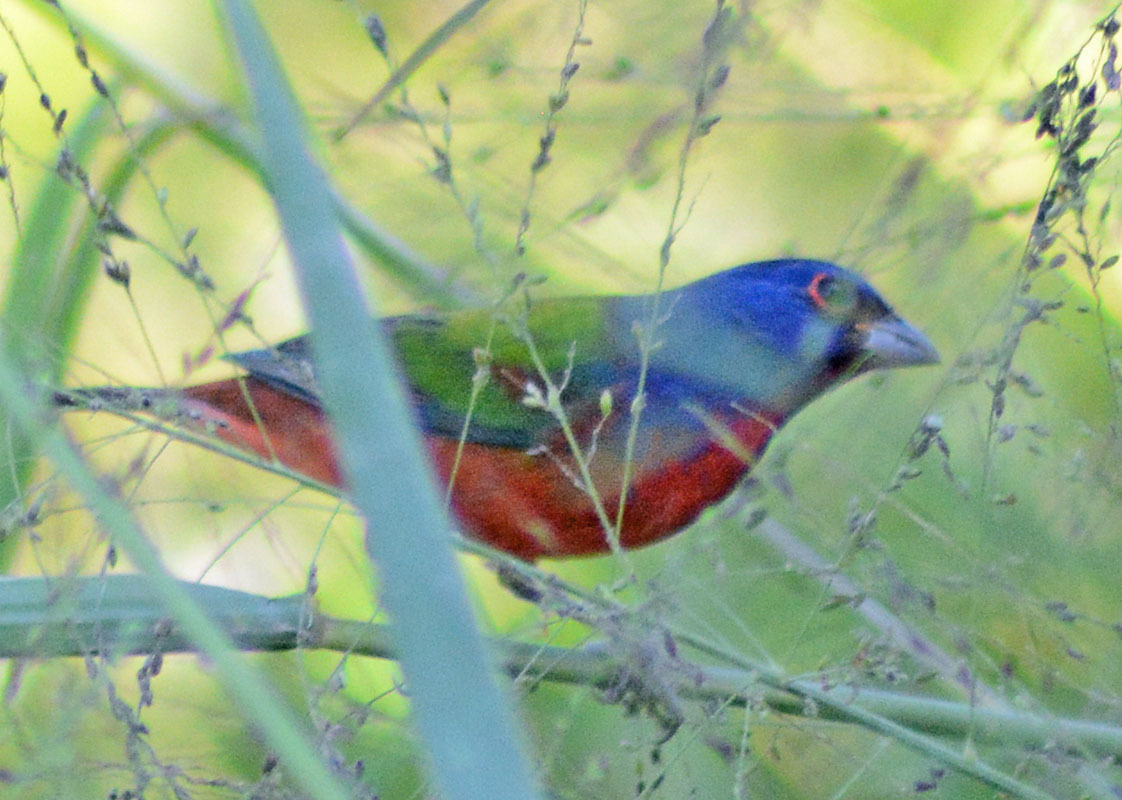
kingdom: Animalia
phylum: Chordata
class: Aves
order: Passeriformes
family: Cardinalidae
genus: Passerina
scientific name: Passerina ciris
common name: Painted bunting
